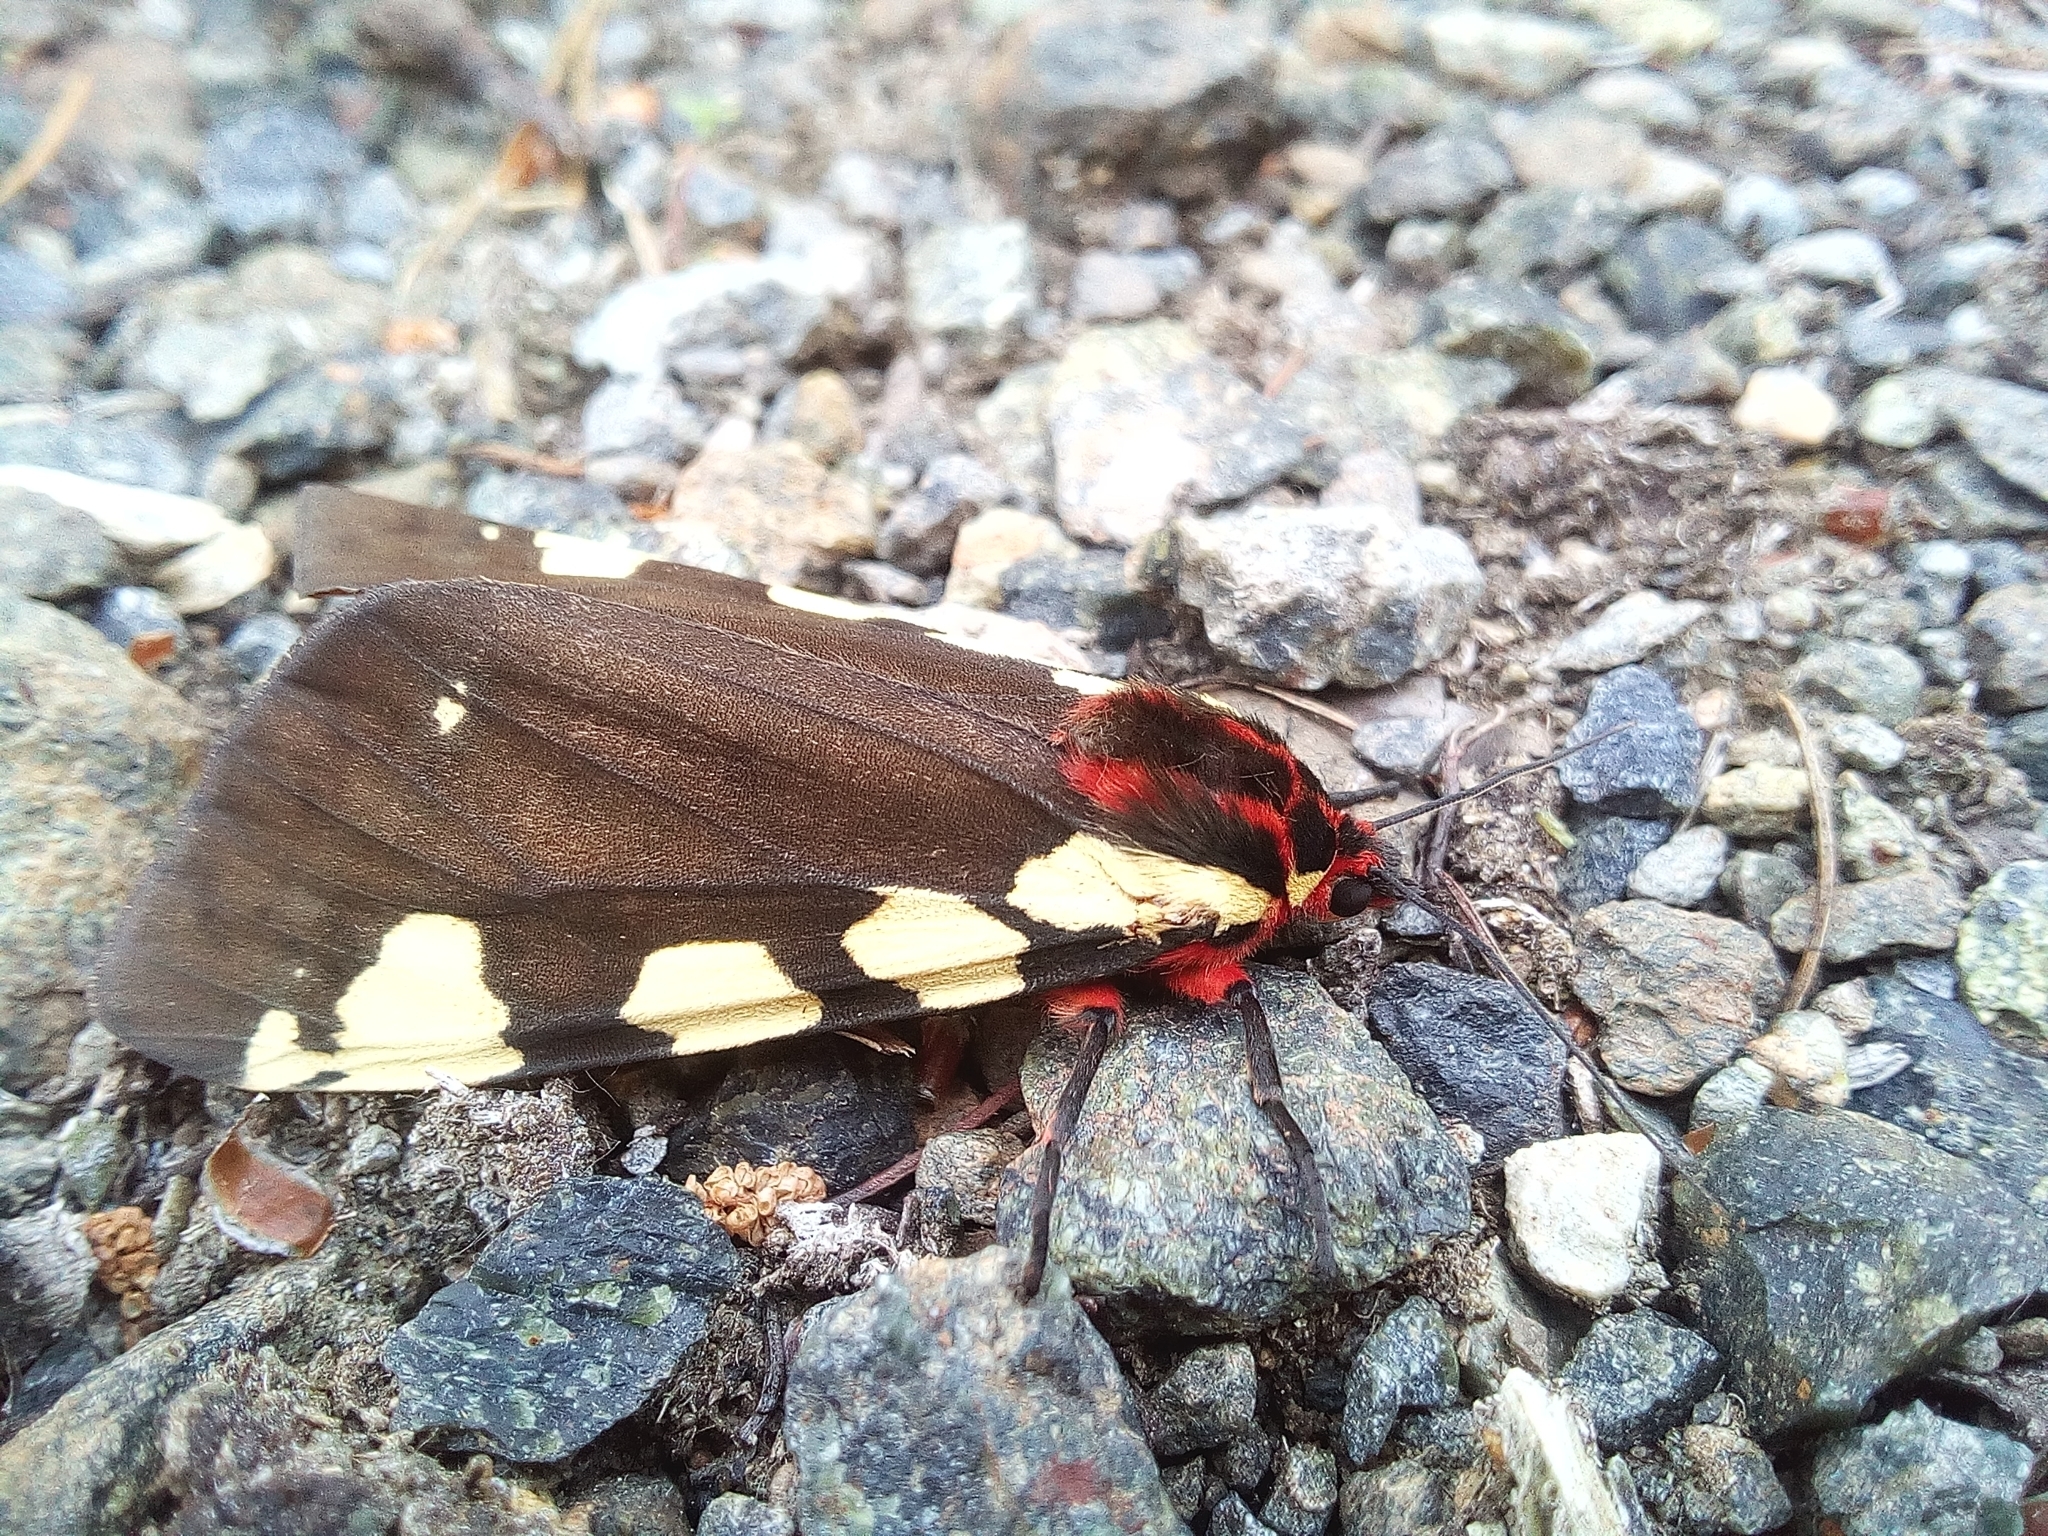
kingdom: Animalia
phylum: Arthropoda
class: Insecta
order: Lepidoptera
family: Erebidae
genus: Pericallia
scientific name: Pericallia matronula
